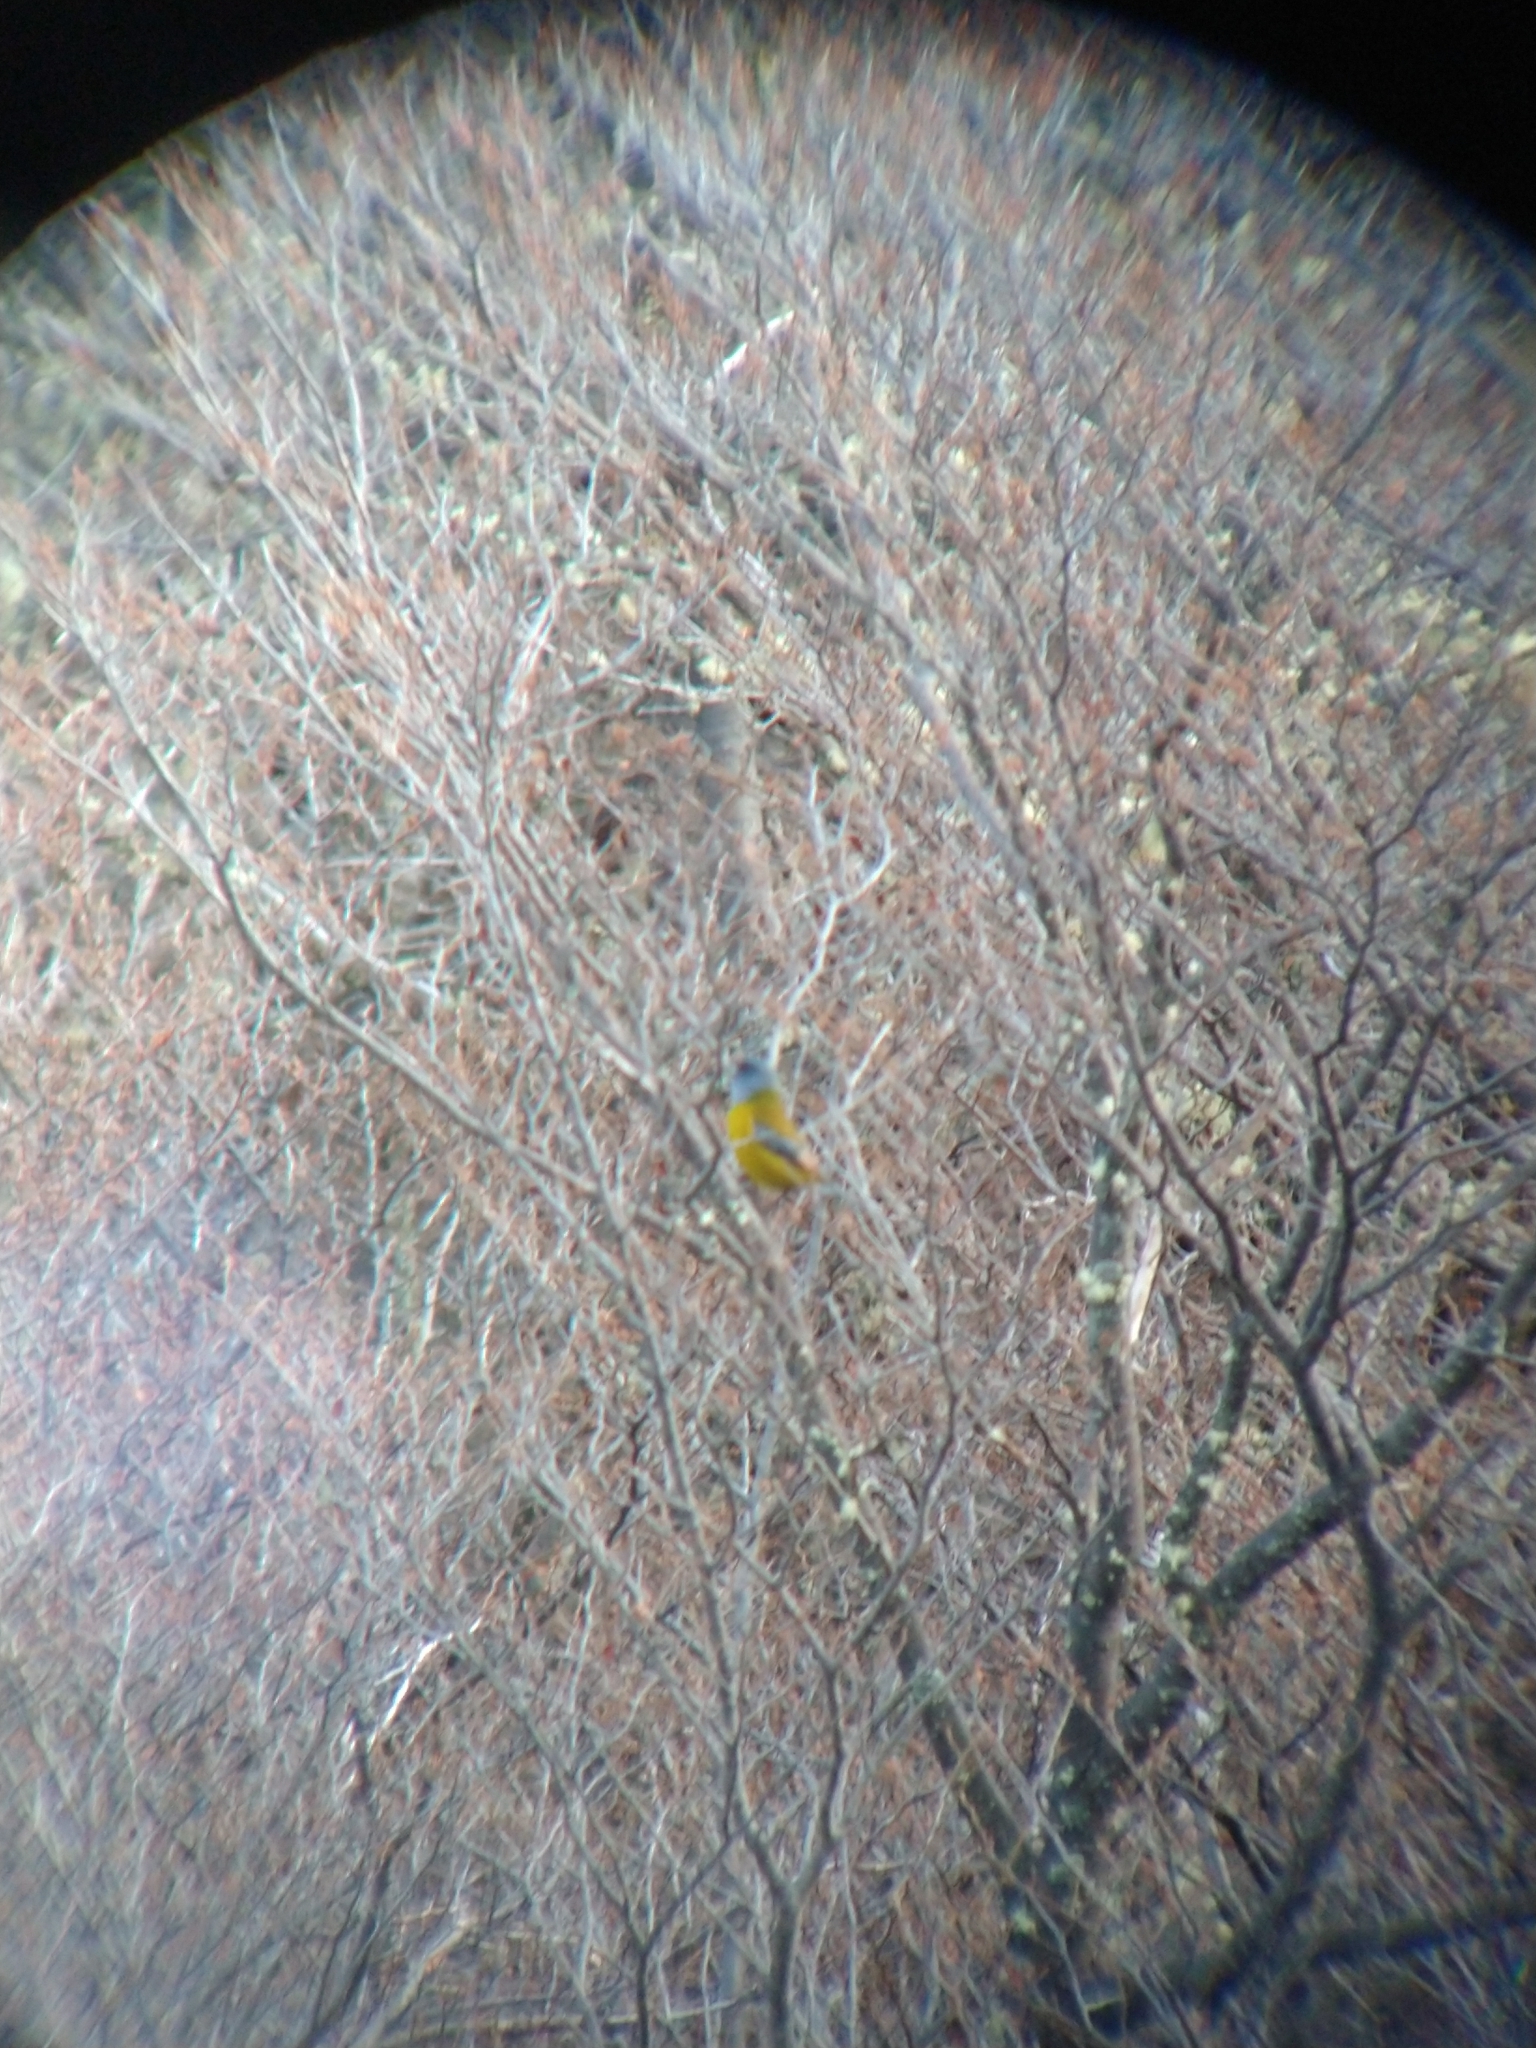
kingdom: Animalia
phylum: Chordata
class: Aves
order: Passeriformes
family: Thraupidae
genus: Phrygilus
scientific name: Phrygilus patagonicus
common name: Patagonian sierra finch
